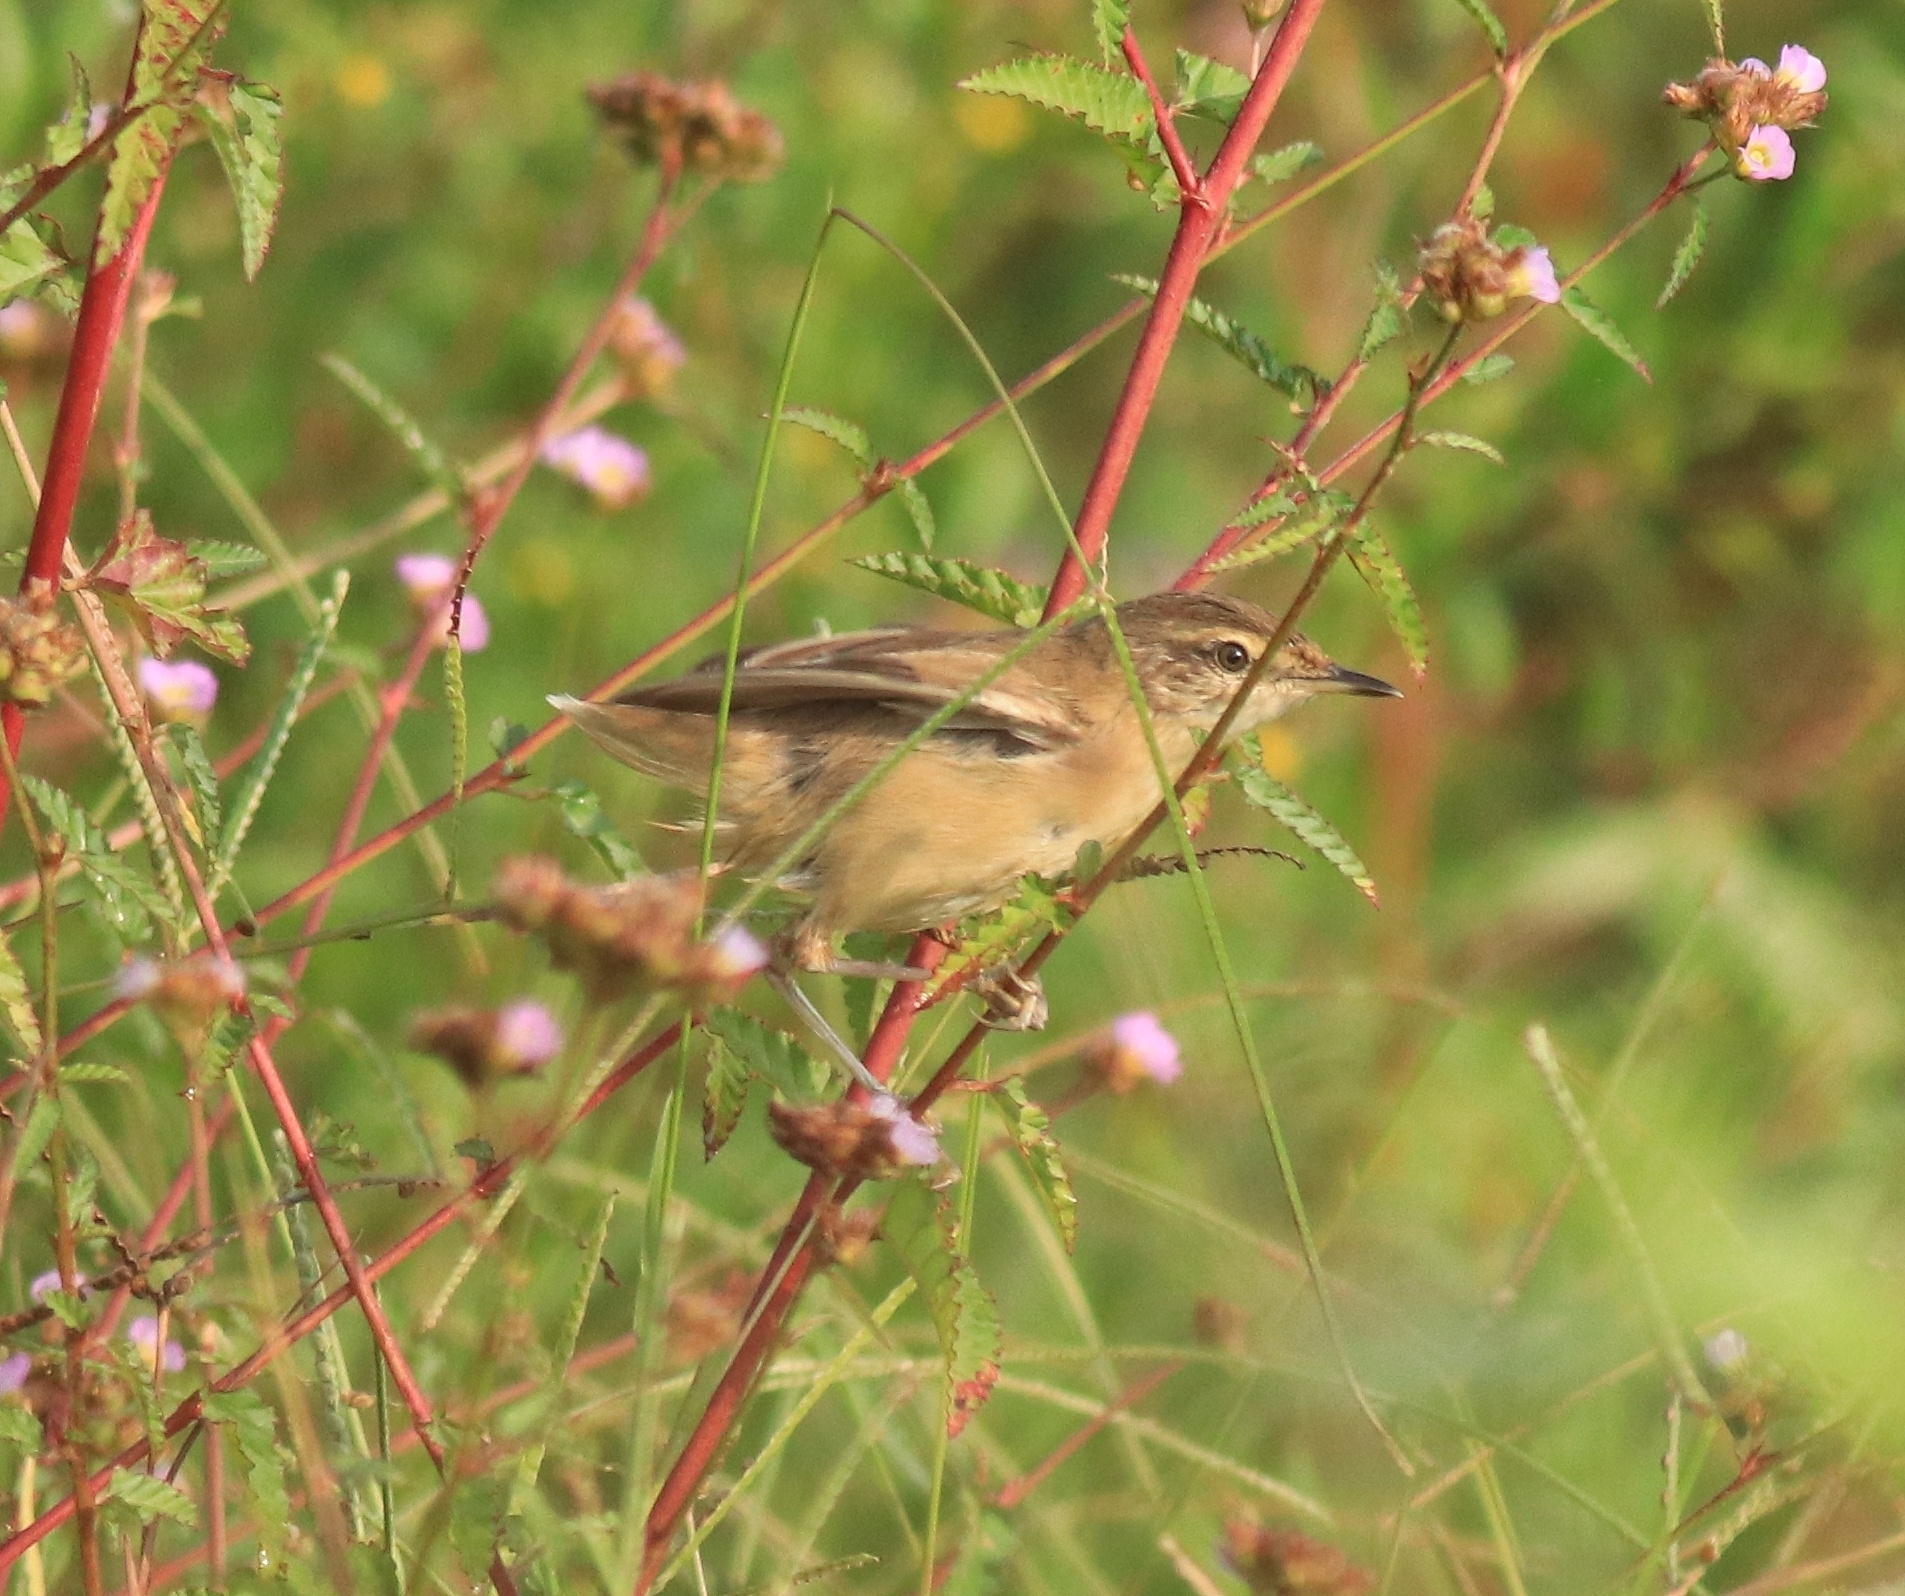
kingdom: Animalia
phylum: Chordata
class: Aves
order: Passeriformes
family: Acrocephalidae
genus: Acrocephalus
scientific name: Acrocephalus agricola
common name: Paddyfield warbler
